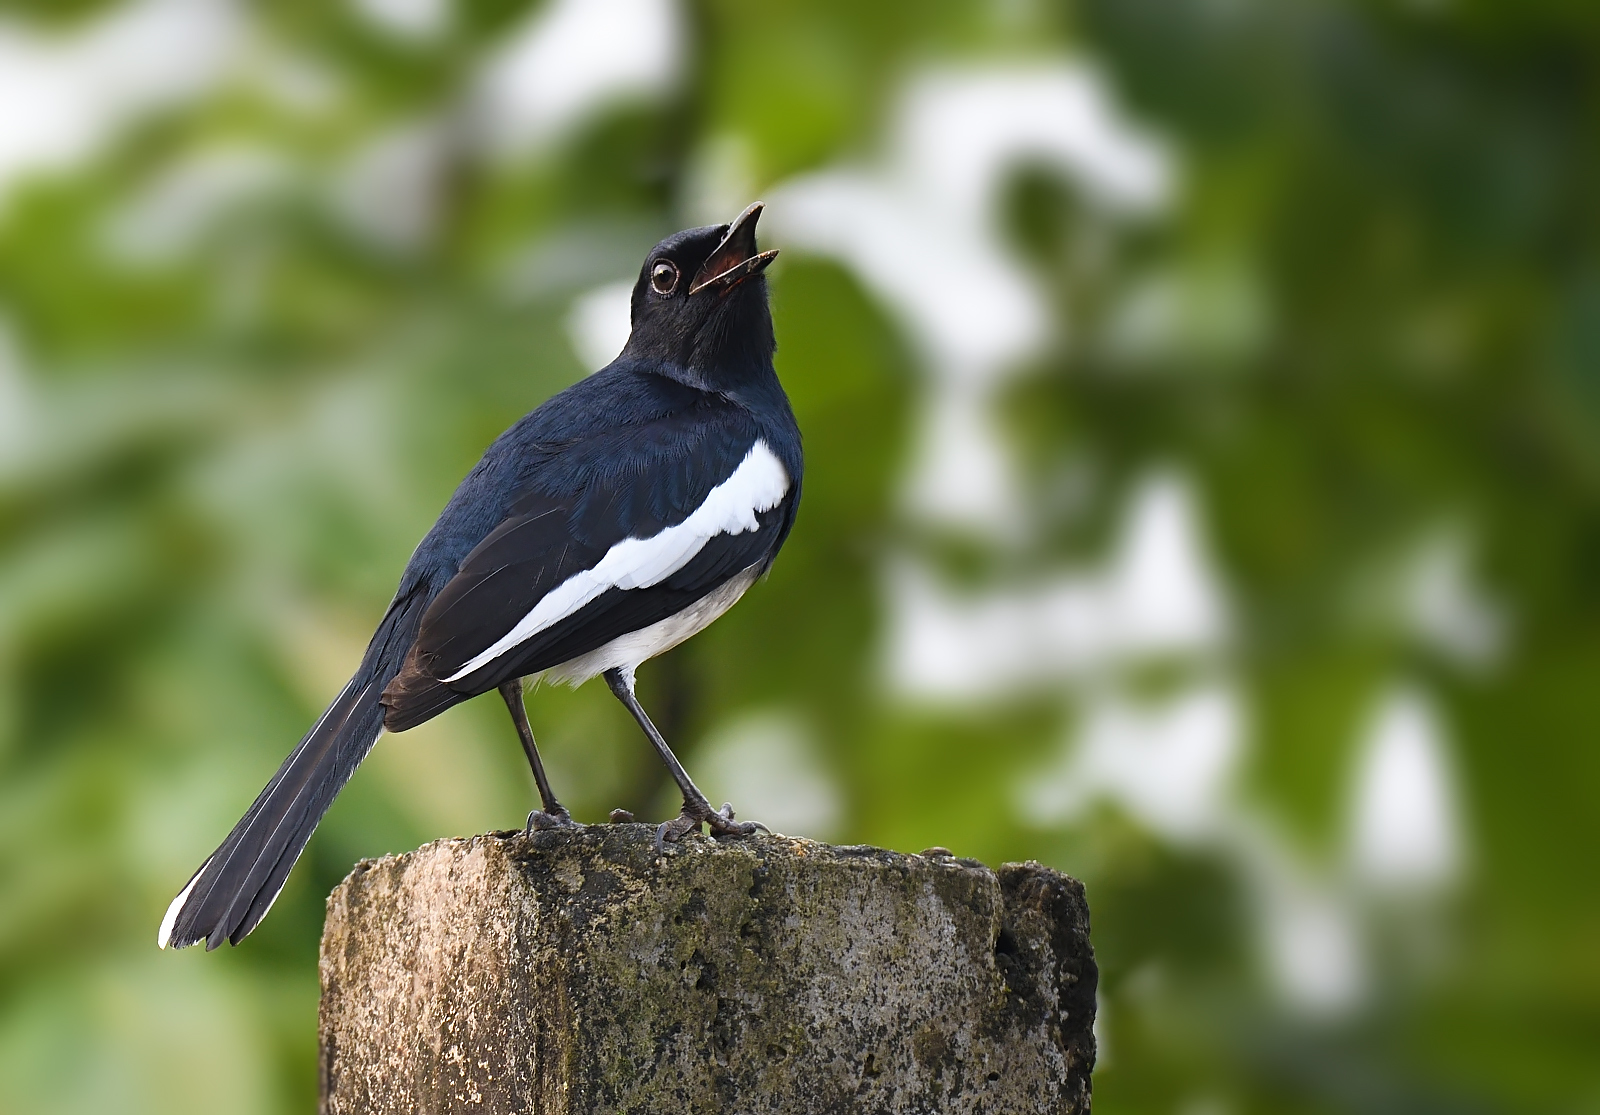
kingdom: Animalia
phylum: Chordata
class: Aves
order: Passeriformes
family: Muscicapidae
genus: Copsychus
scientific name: Copsychus saularis
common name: Oriental magpie-robin
